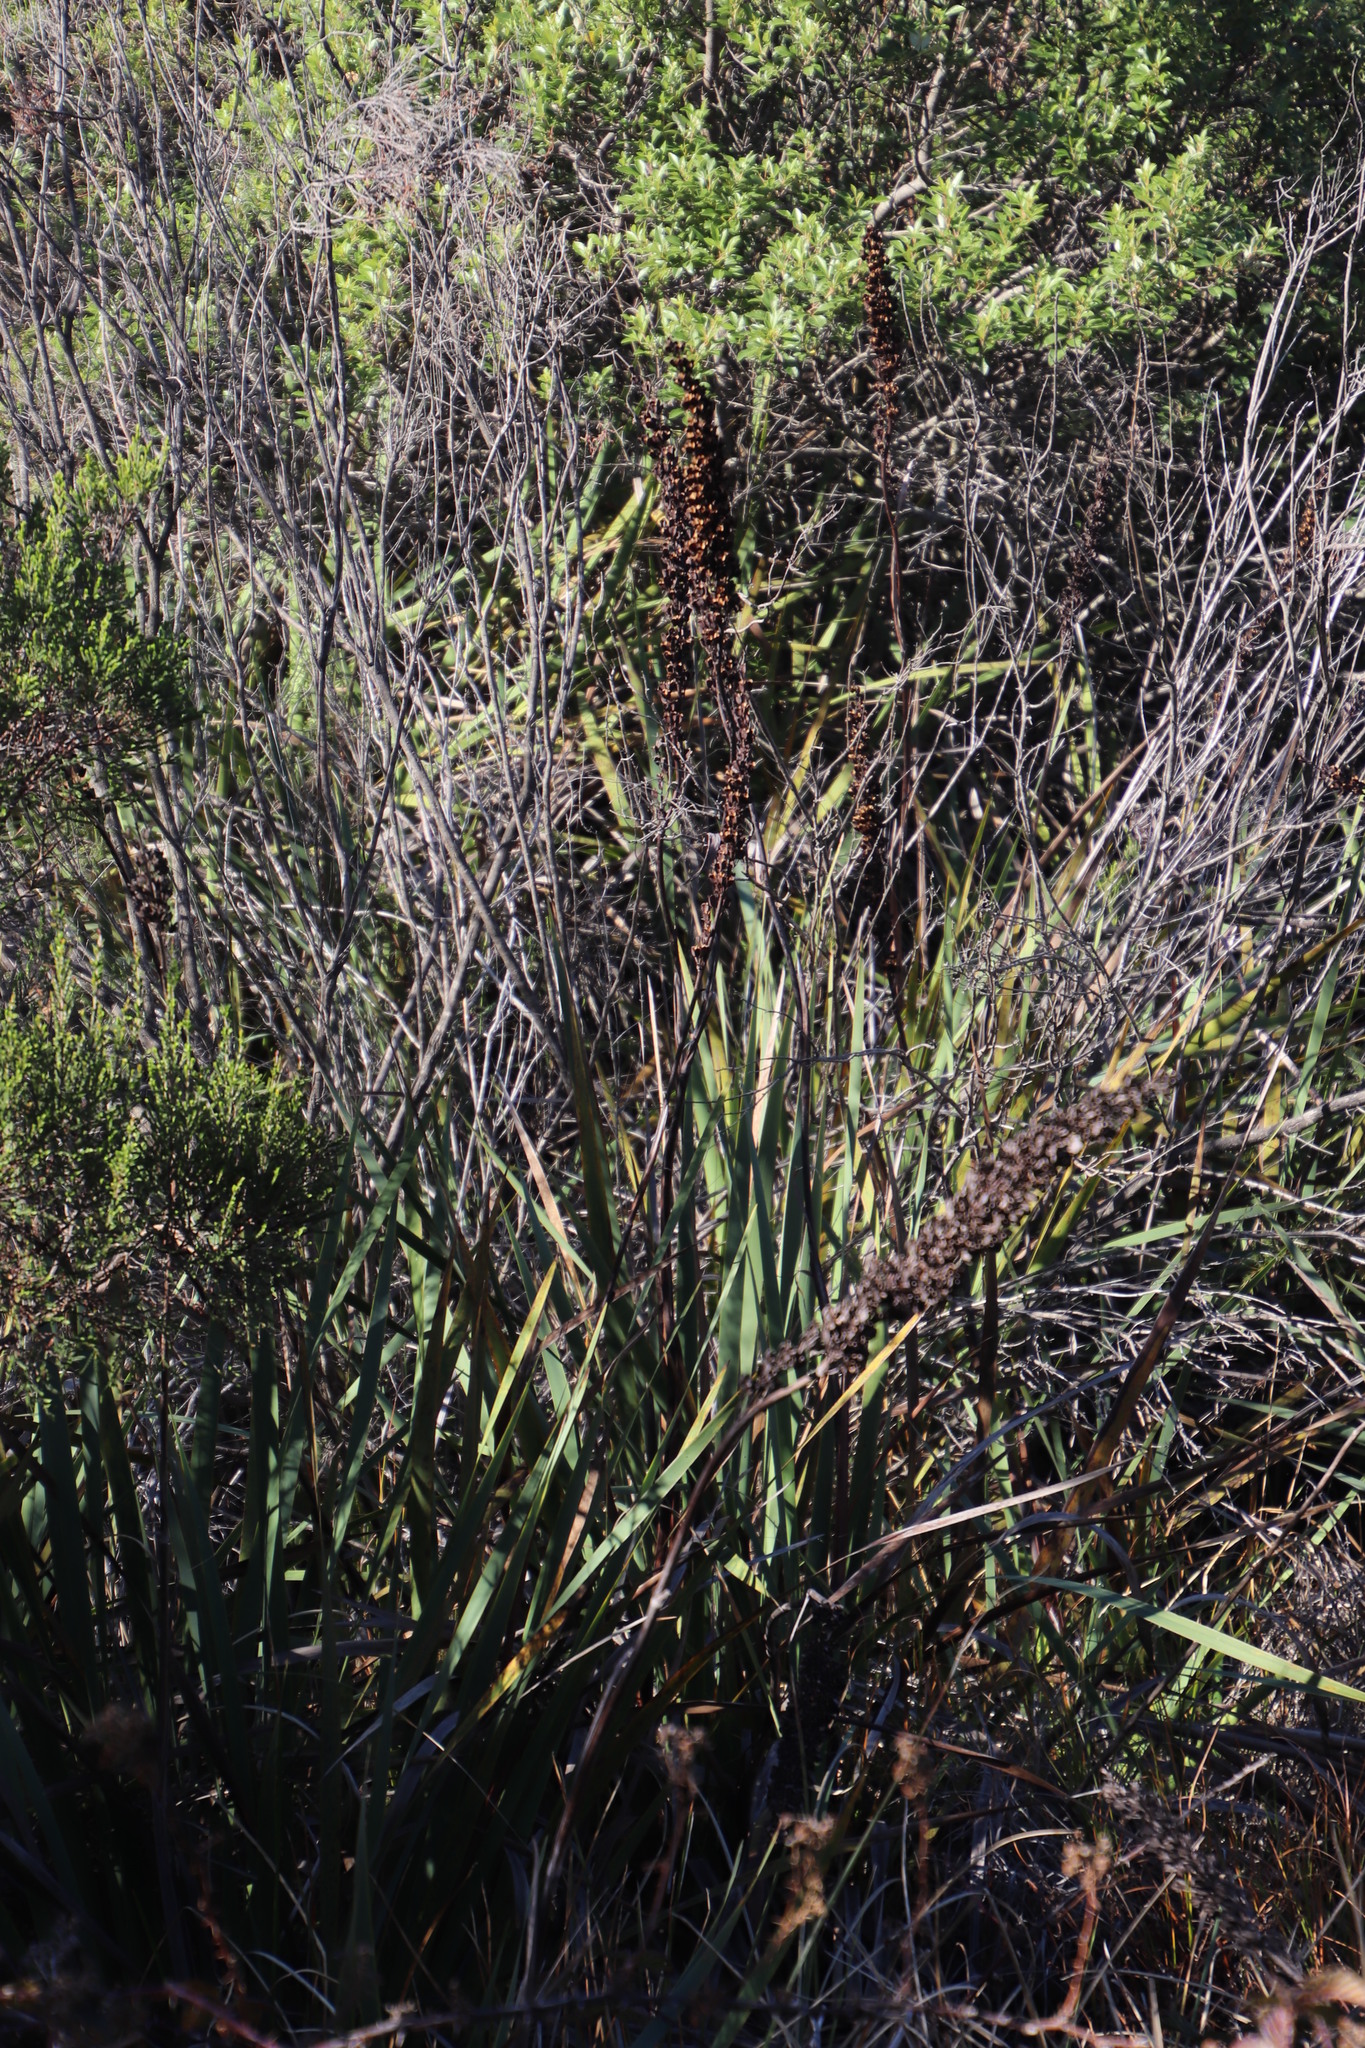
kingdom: Plantae
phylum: Tracheophyta
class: Liliopsida
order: Asparagales
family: Iridaceae
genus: Aristea
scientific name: Aristea capitata
